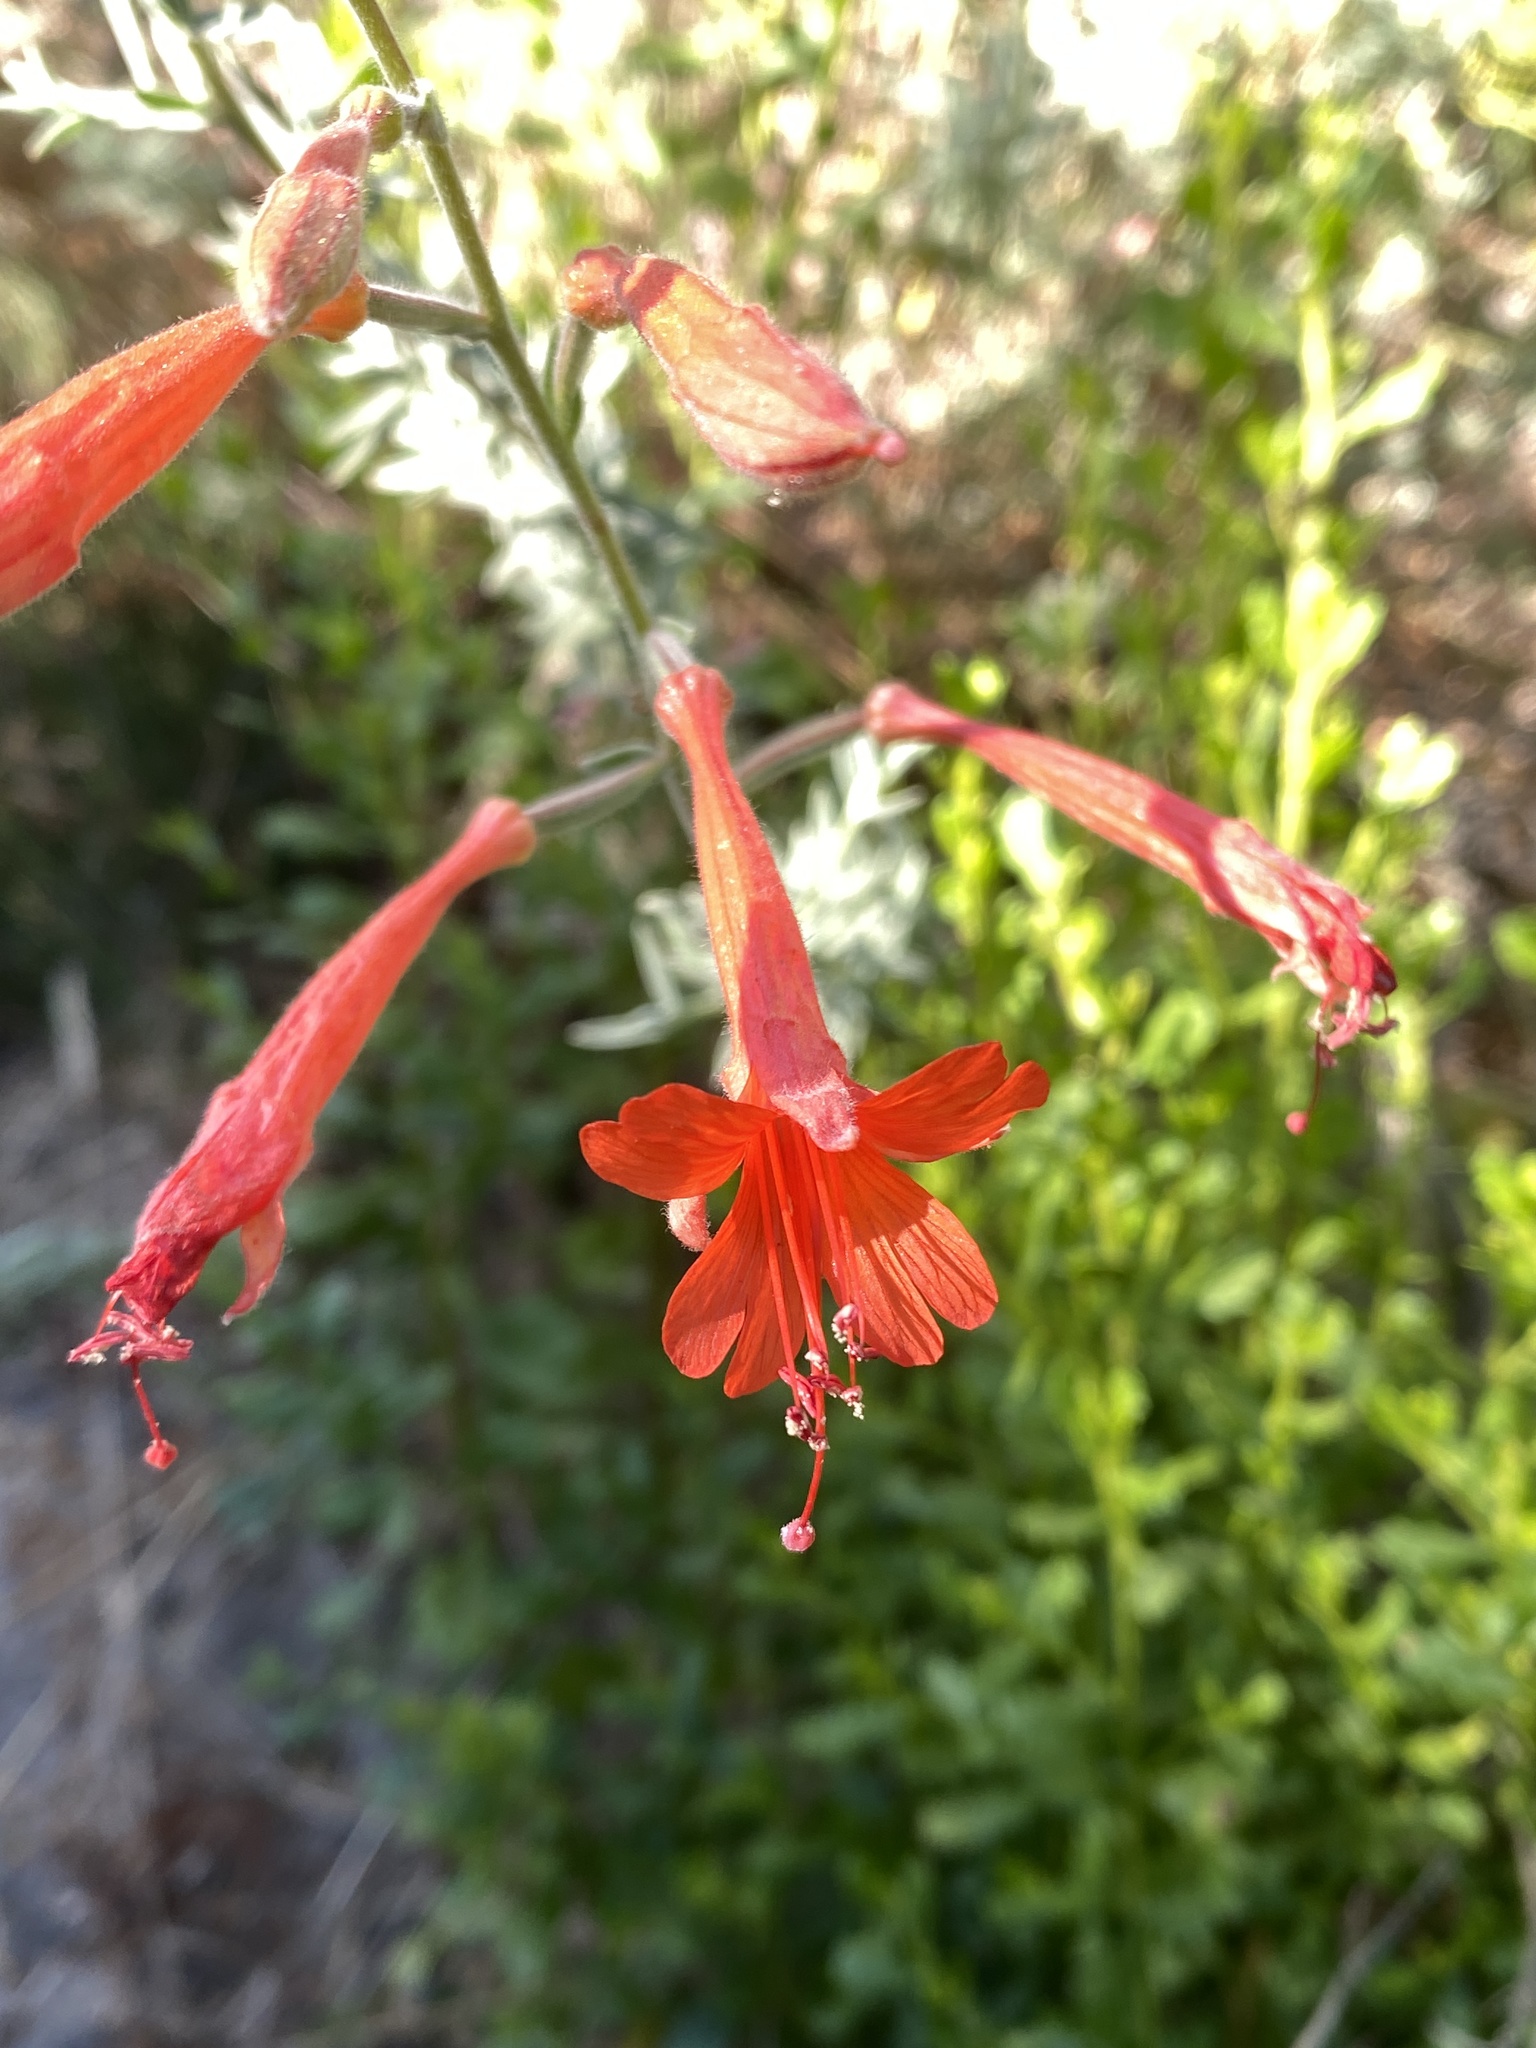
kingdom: Plantae
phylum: Tracheophyta
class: Magnoliopsida
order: Myrtales
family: Onagraceae
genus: Epilobium
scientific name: Epilobium canum
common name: California-fuchsia
